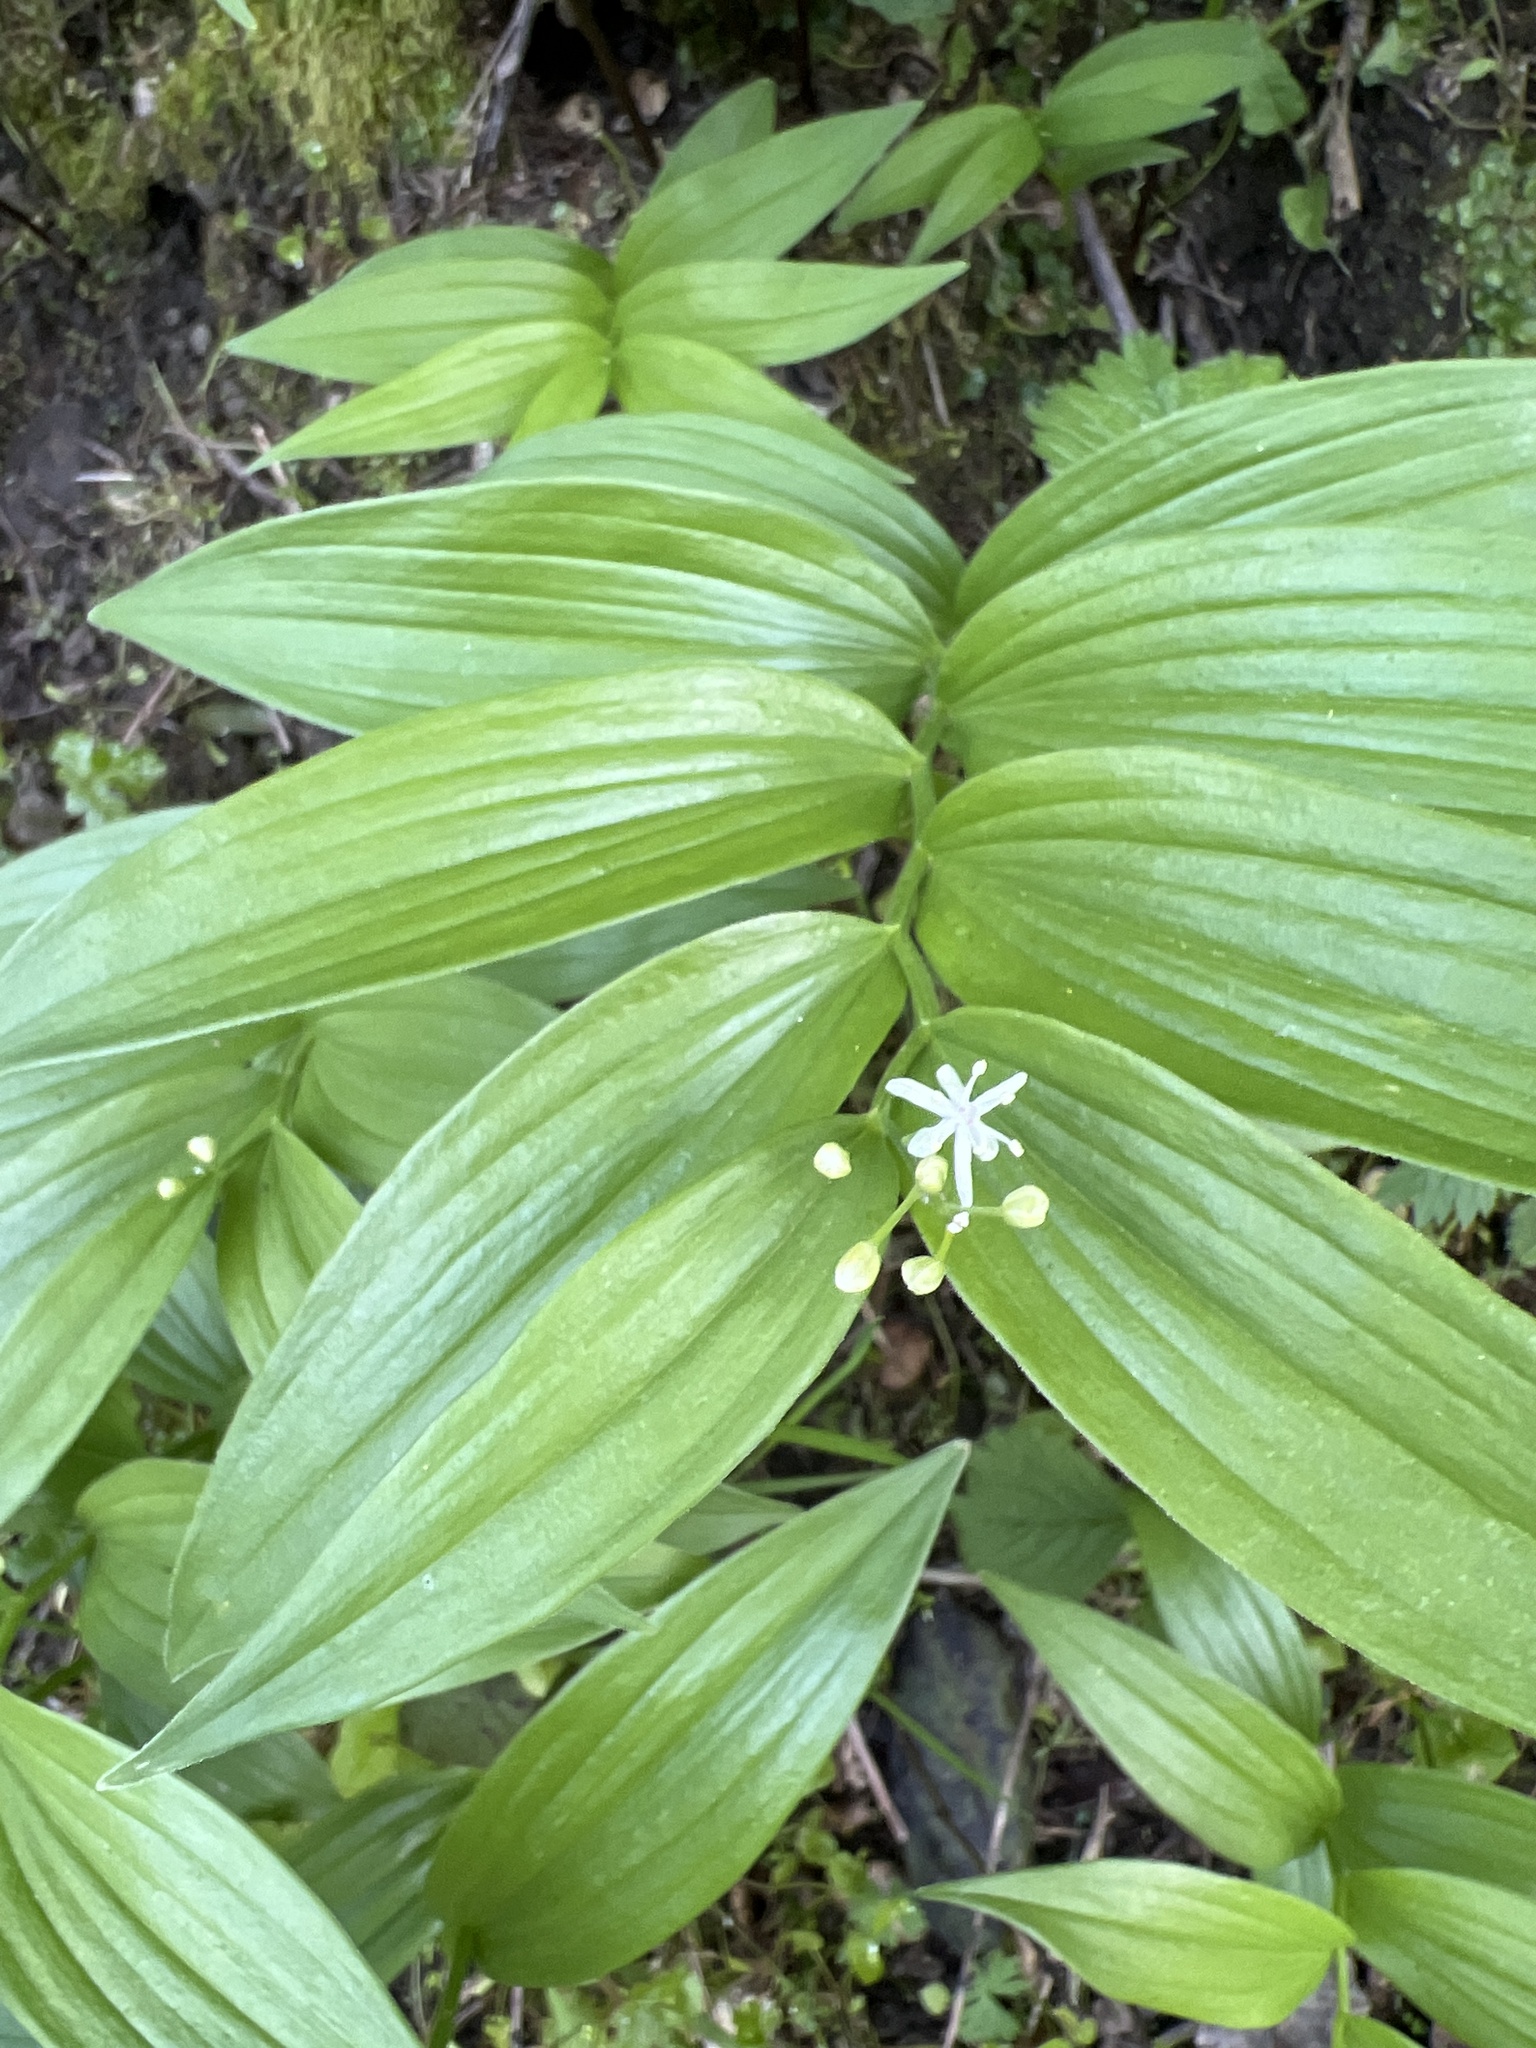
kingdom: Plantae
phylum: Tracheophyta
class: Liliopsida
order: Asparagales
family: Asparagaceae
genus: Maianthemum
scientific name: Maianthemum stellatum
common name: Little false solomon's seal
